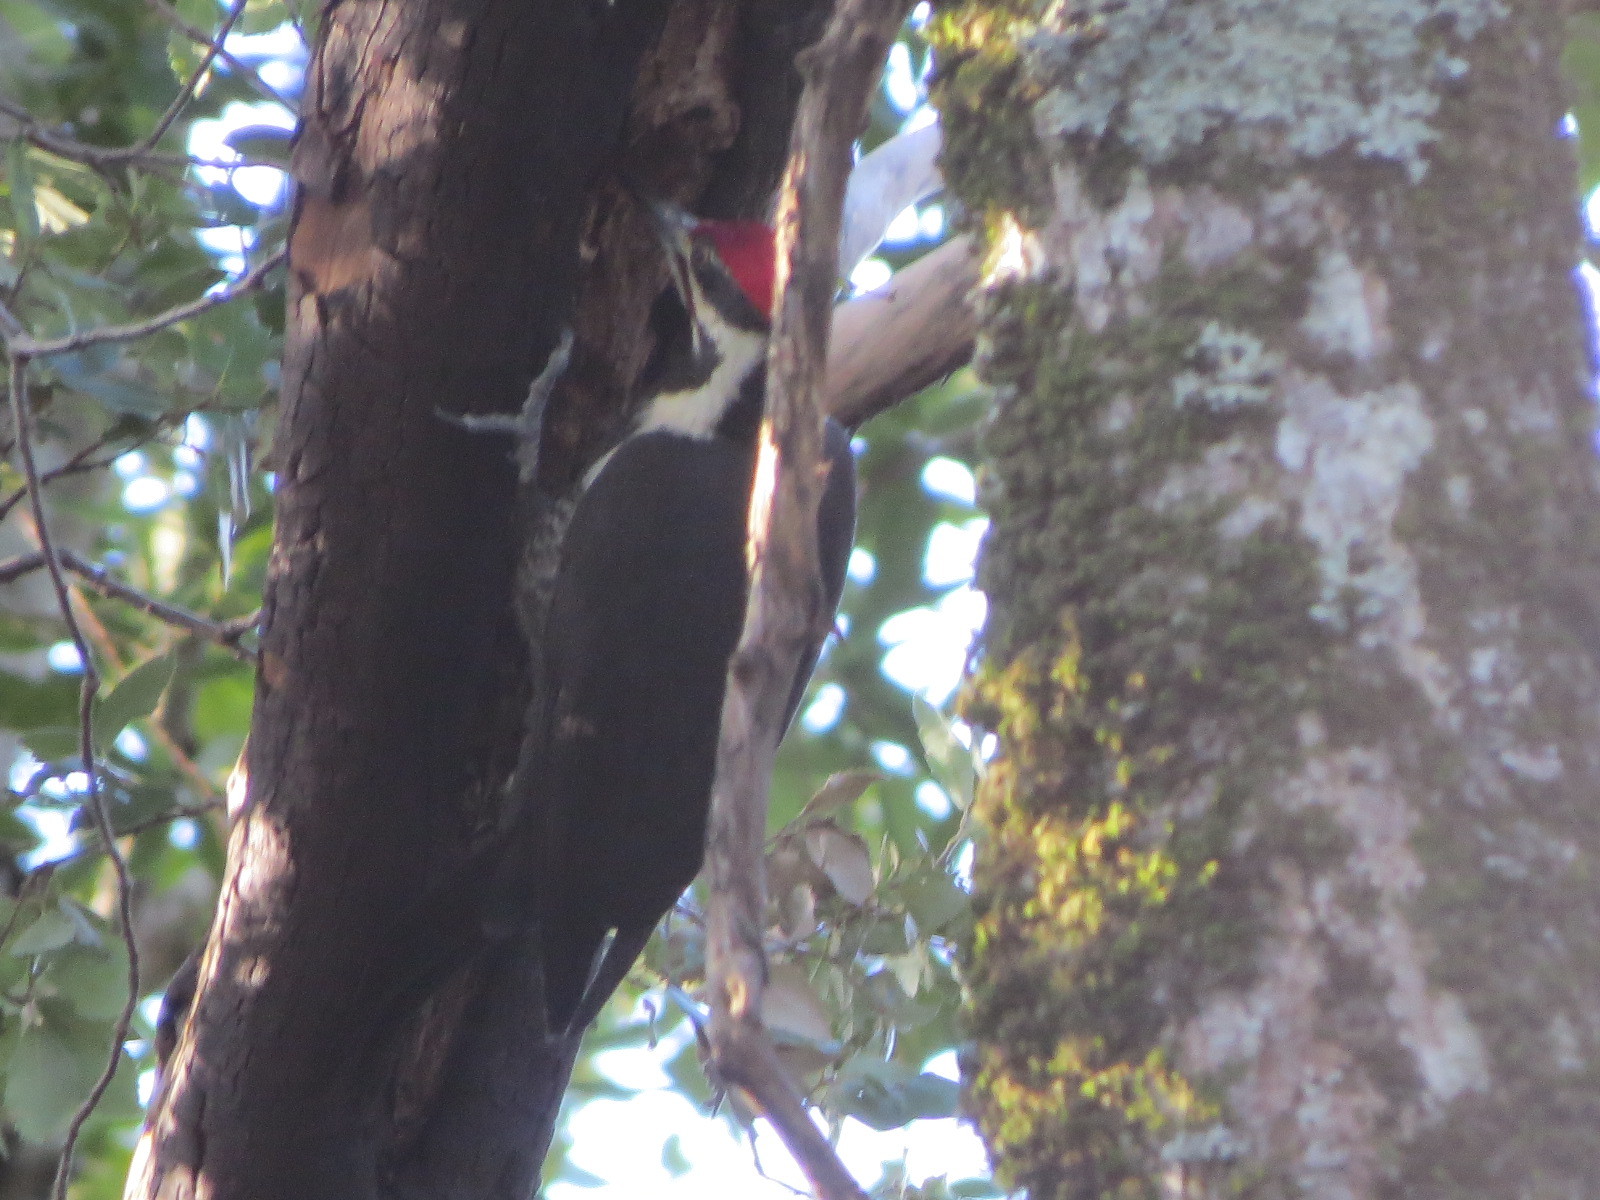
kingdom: Animalia
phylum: Chordata
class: Aves
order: Piciformes
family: Picidae
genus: Dryocopus
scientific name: Dryocopus pileatus
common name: Pileated woodpecker
